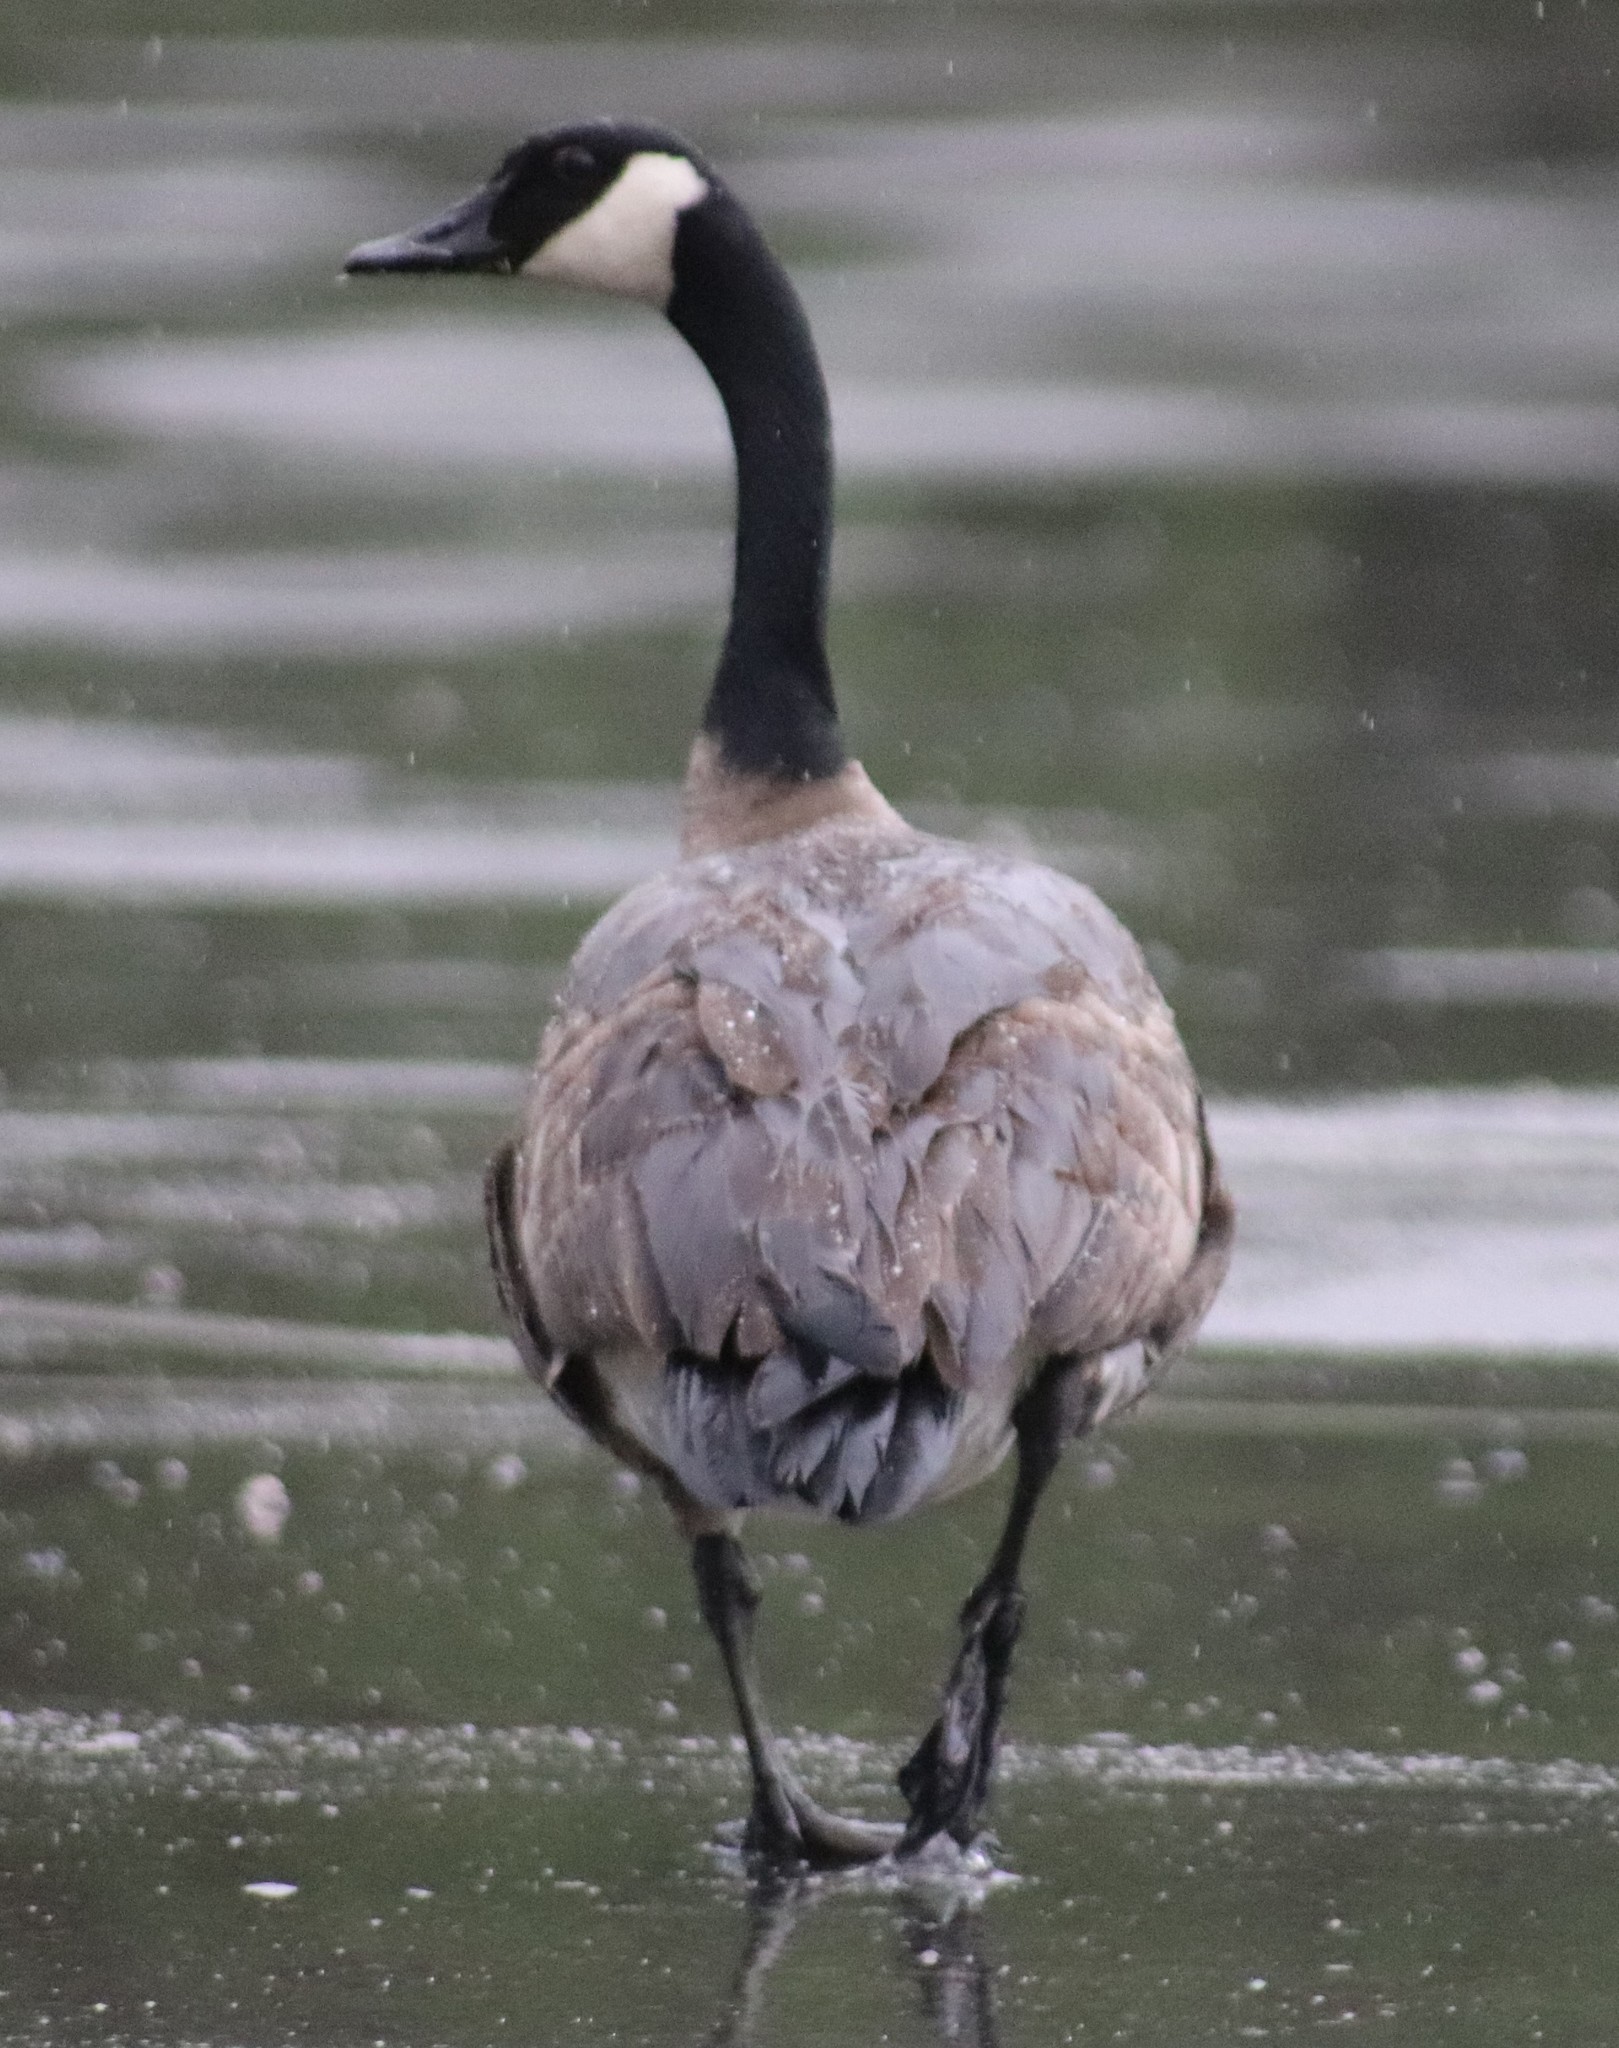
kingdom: Animalia
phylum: Chordata
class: Aves
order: Anseriformes
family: Anatidae
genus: Branta
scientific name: Branta canadensis
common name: Canada goose
